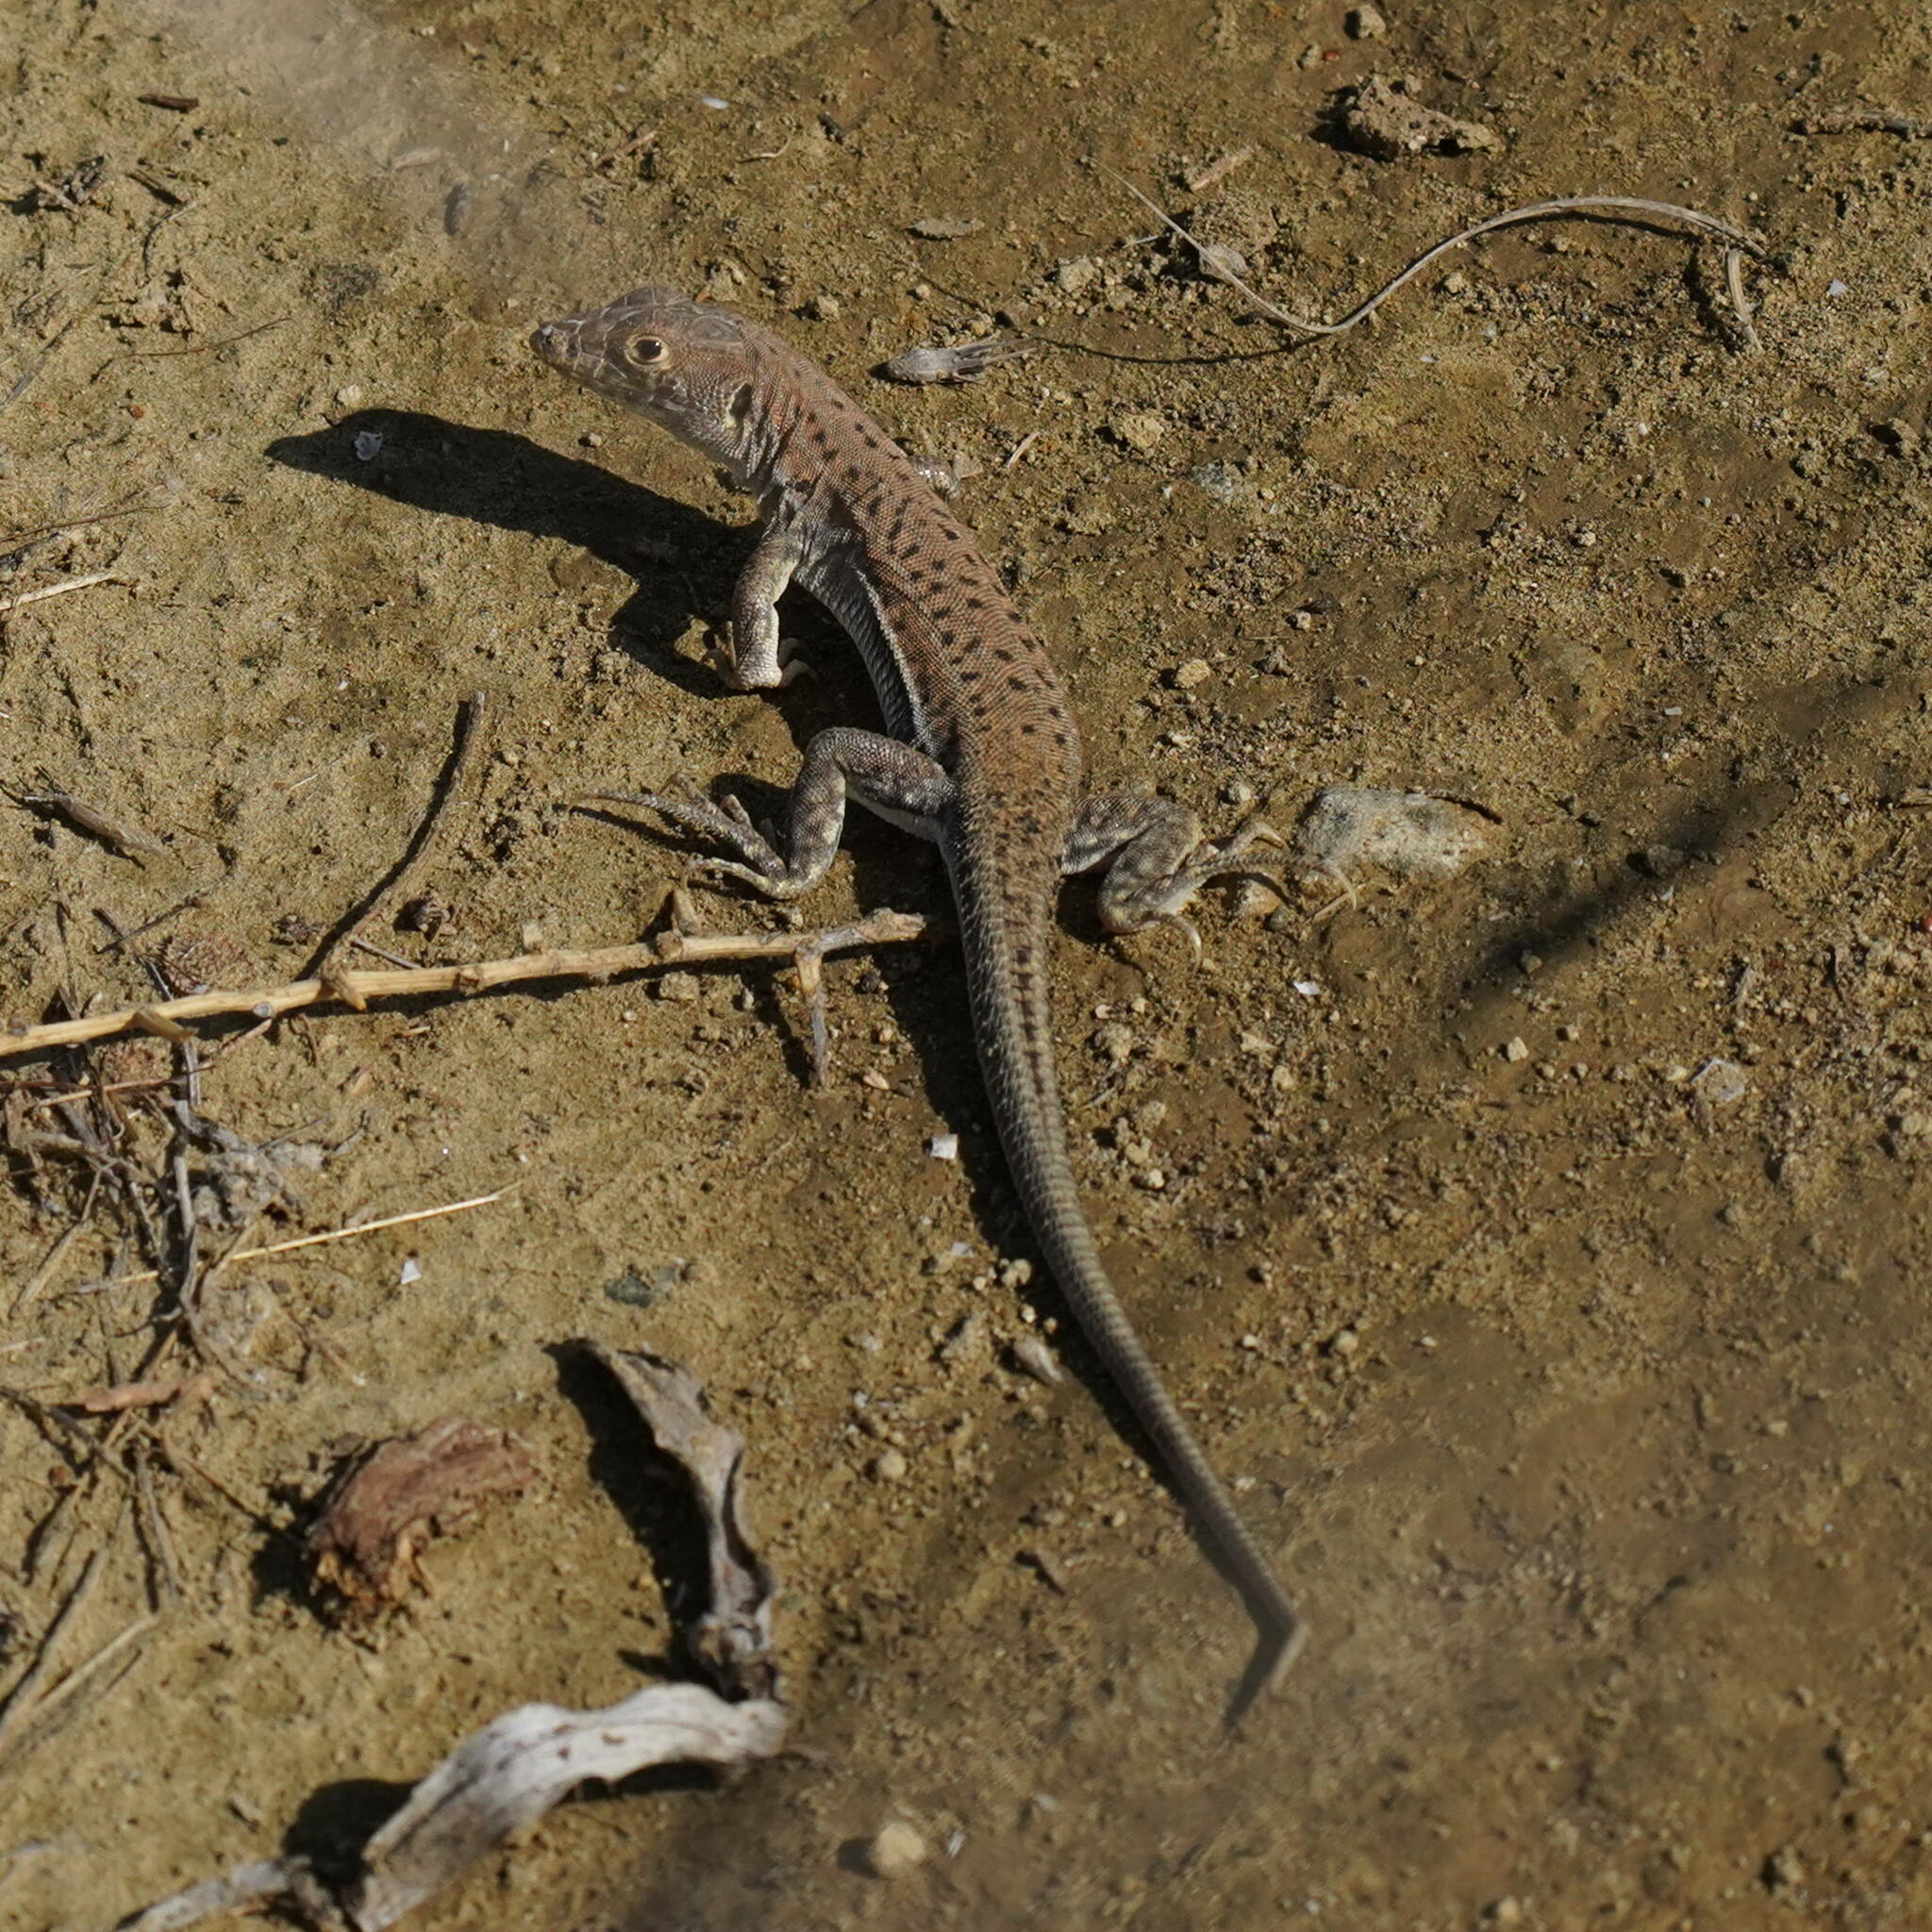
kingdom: Animalia
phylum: Chordata
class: Squamata
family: Lacertidae
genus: Acanthodactylus
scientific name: Acanthodactylus schreiberi
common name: Schreiber's fringe-fingered lizard
